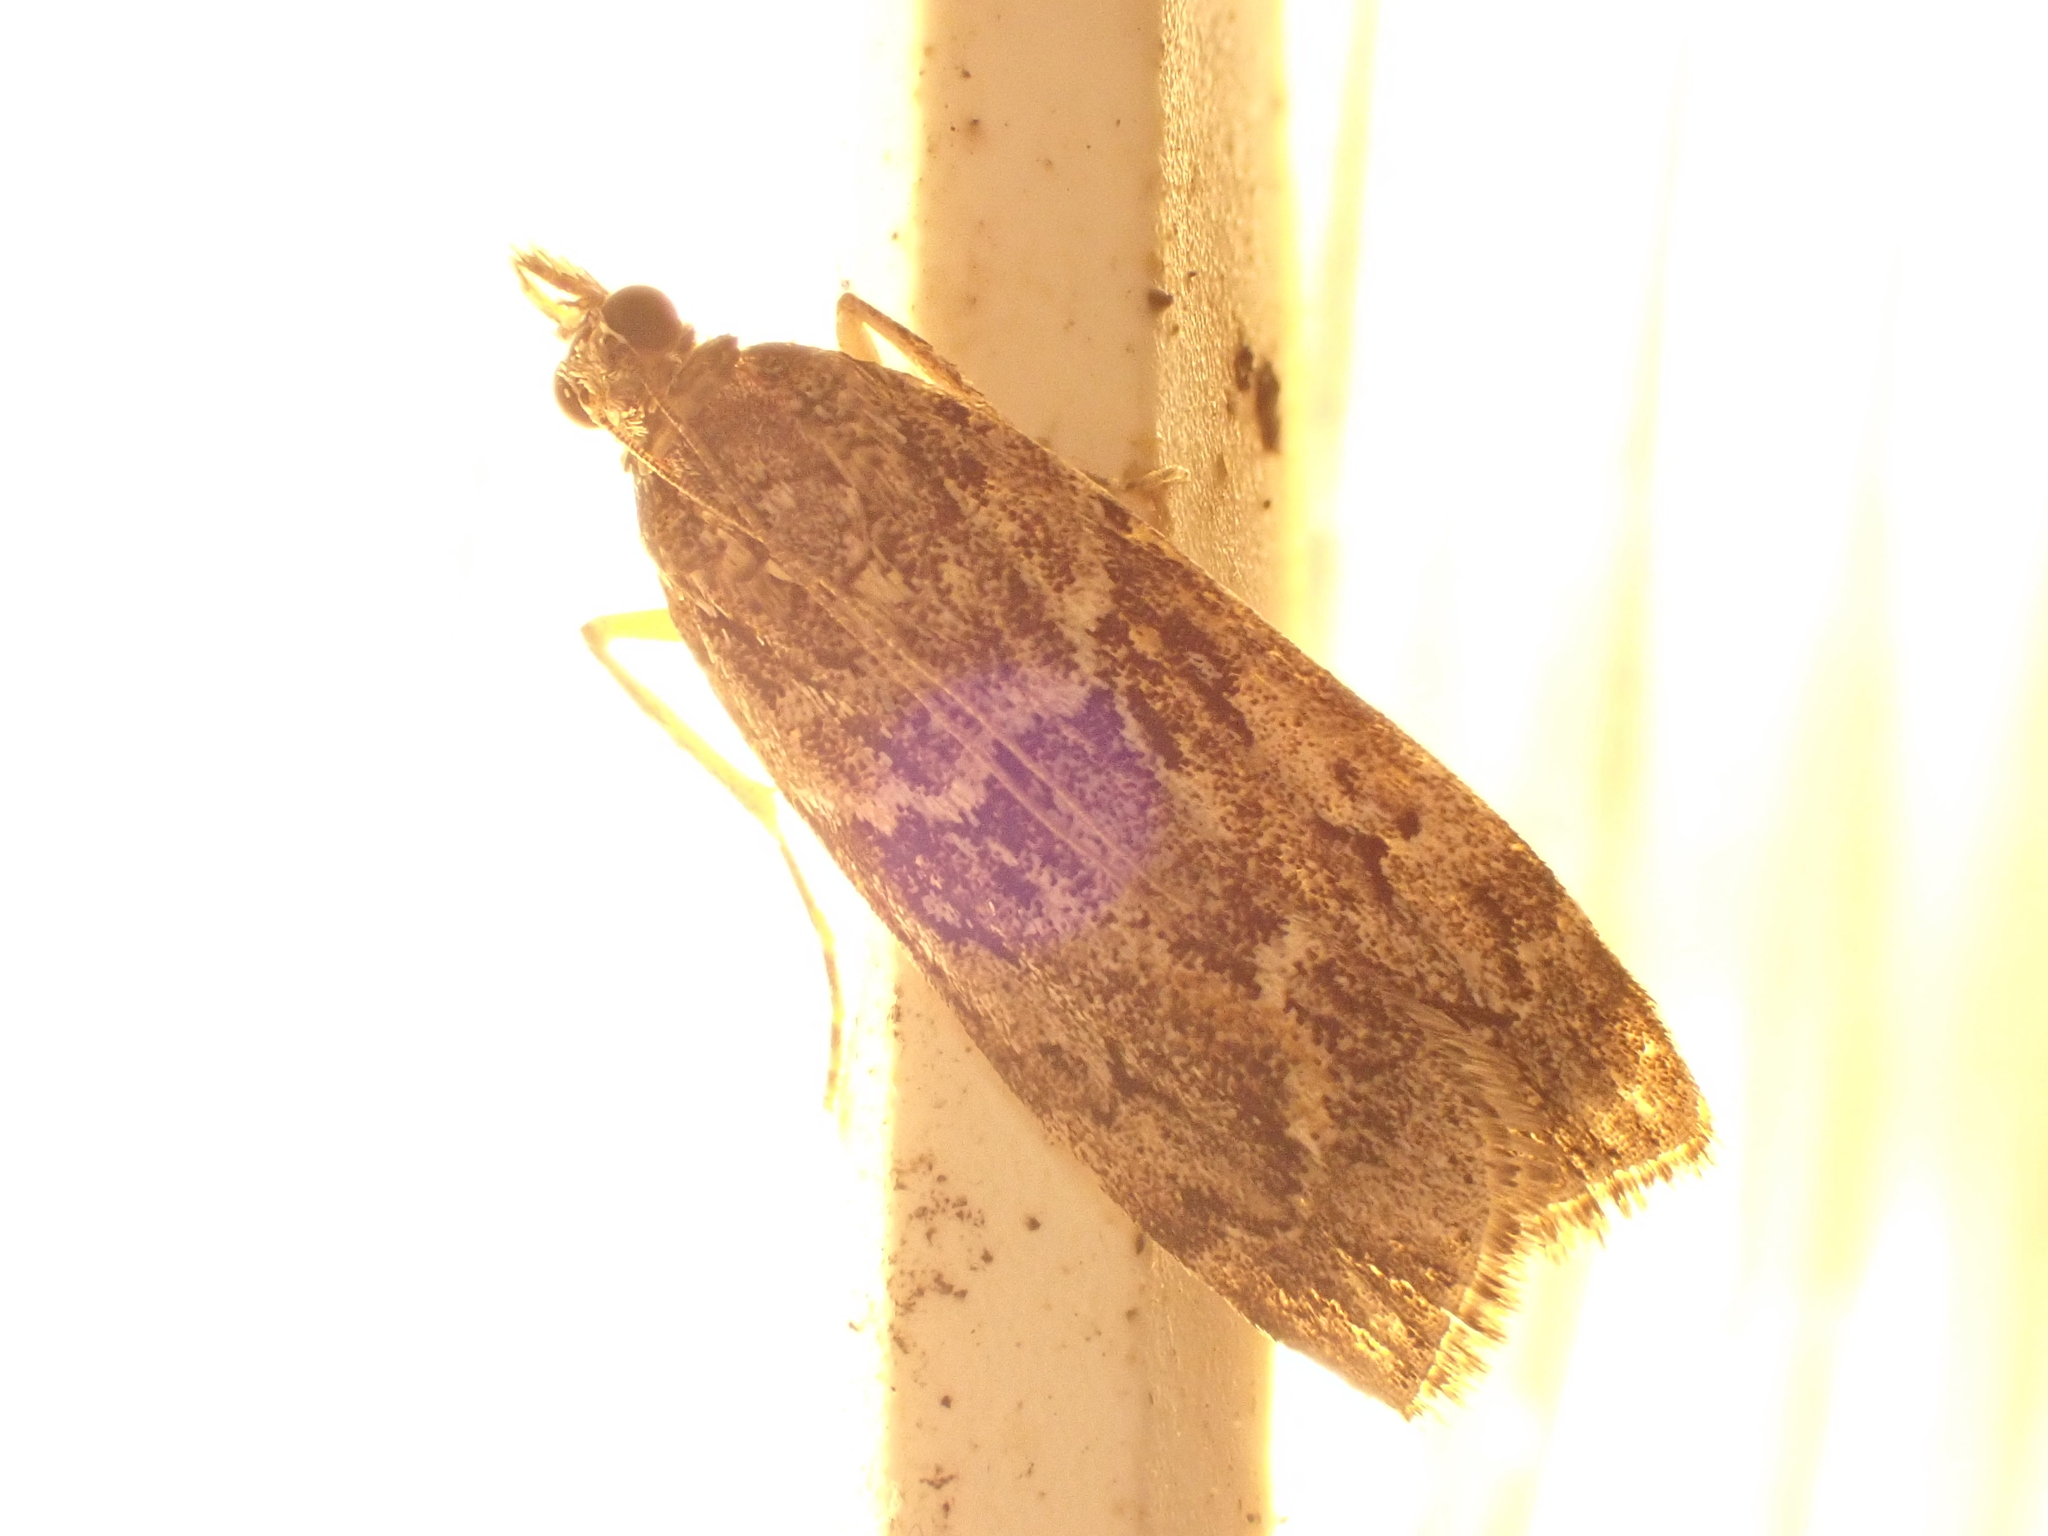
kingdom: Animalia
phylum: Arthropoda
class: Insecta
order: Lepidoptera
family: Crambidae
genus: Eudonia
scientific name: Eudonia submarginalis
